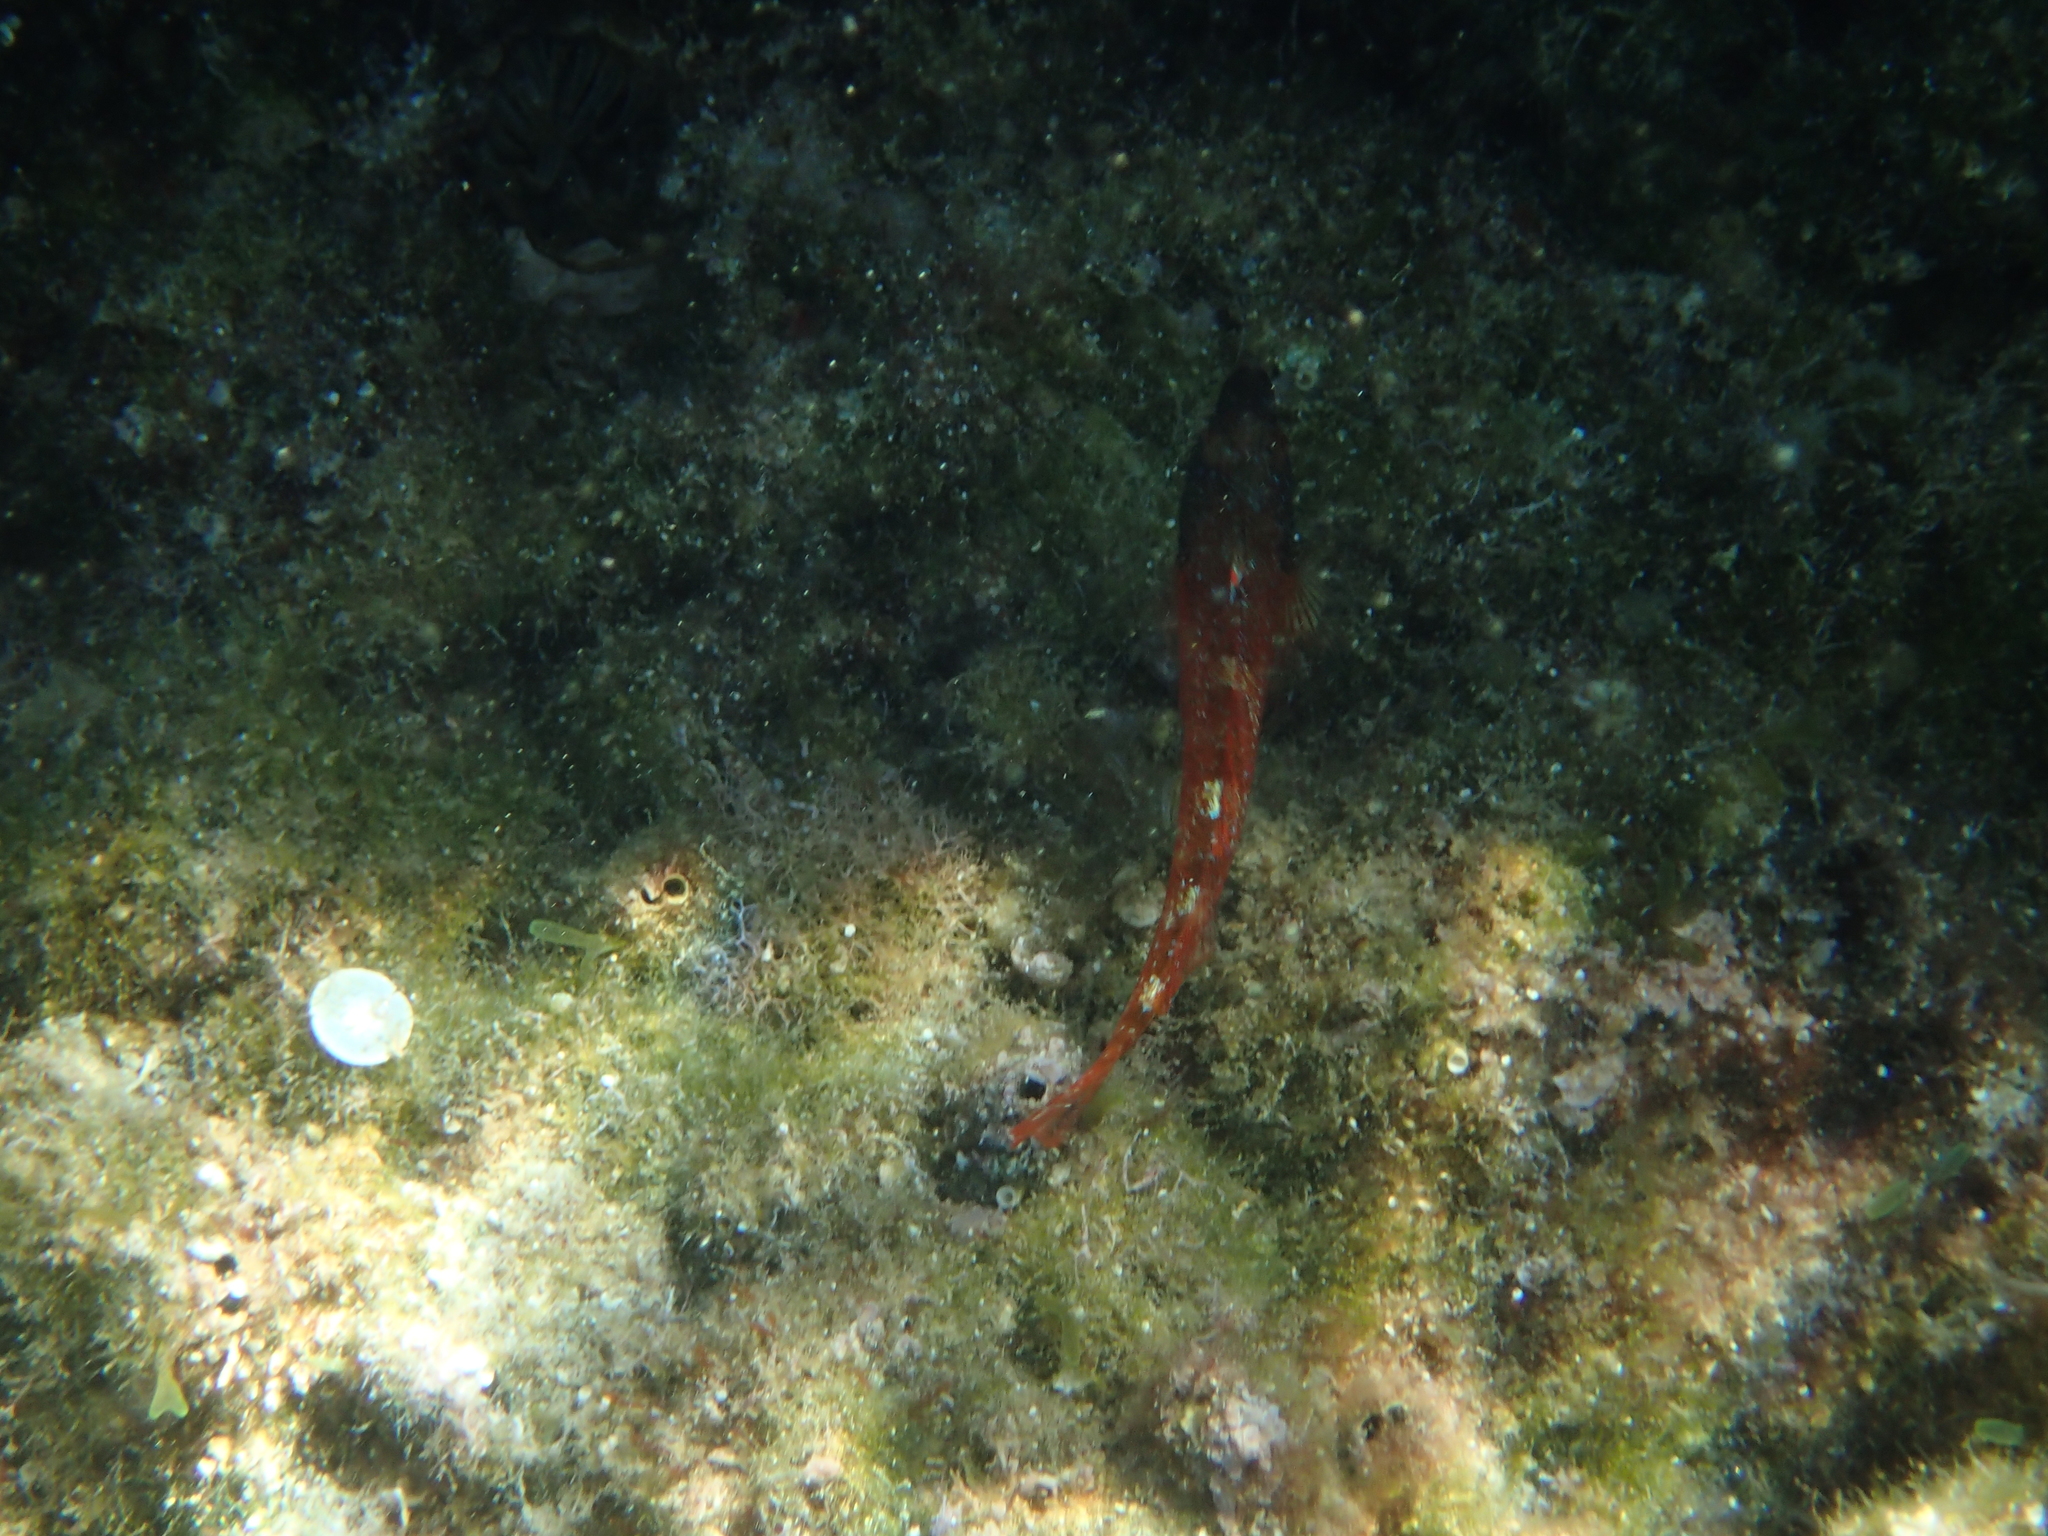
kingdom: Animalia
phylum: Chordata
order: Perciformes
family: Tripterygiidae
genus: Tripterygion
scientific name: Tripterygion tripteronotum
